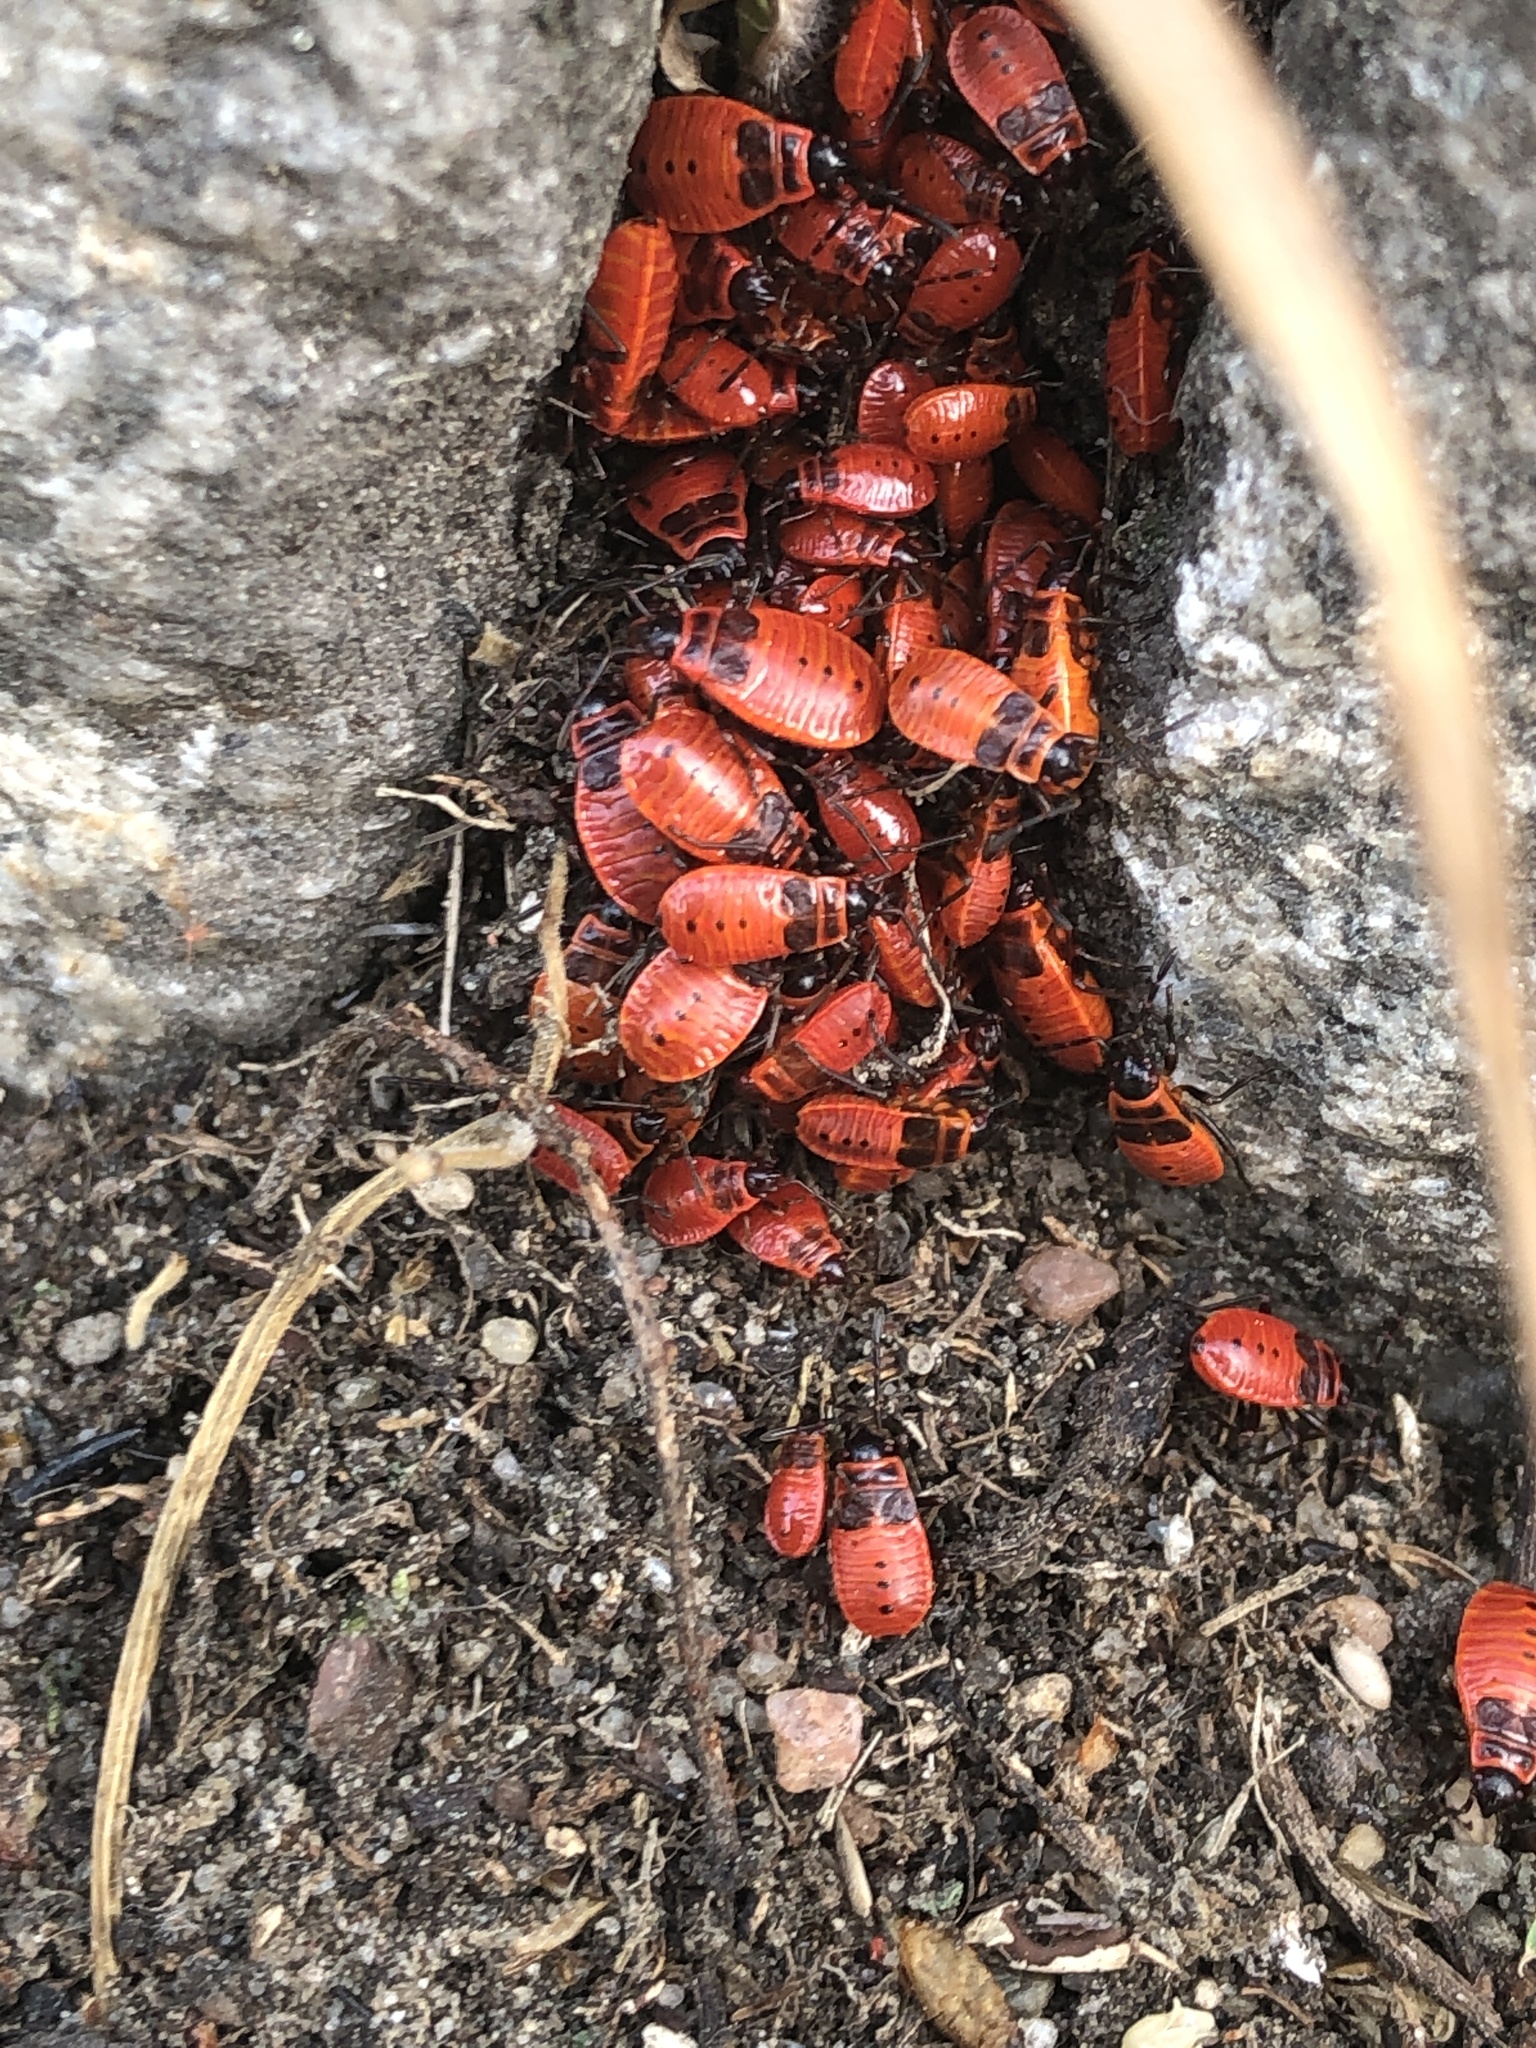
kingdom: Animalia
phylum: Arthropoda
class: Insecta
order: Hemiptera
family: Pyrrhocoridae
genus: Pyrrhocoris
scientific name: Pyrrhocoris apterus
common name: Firebug
